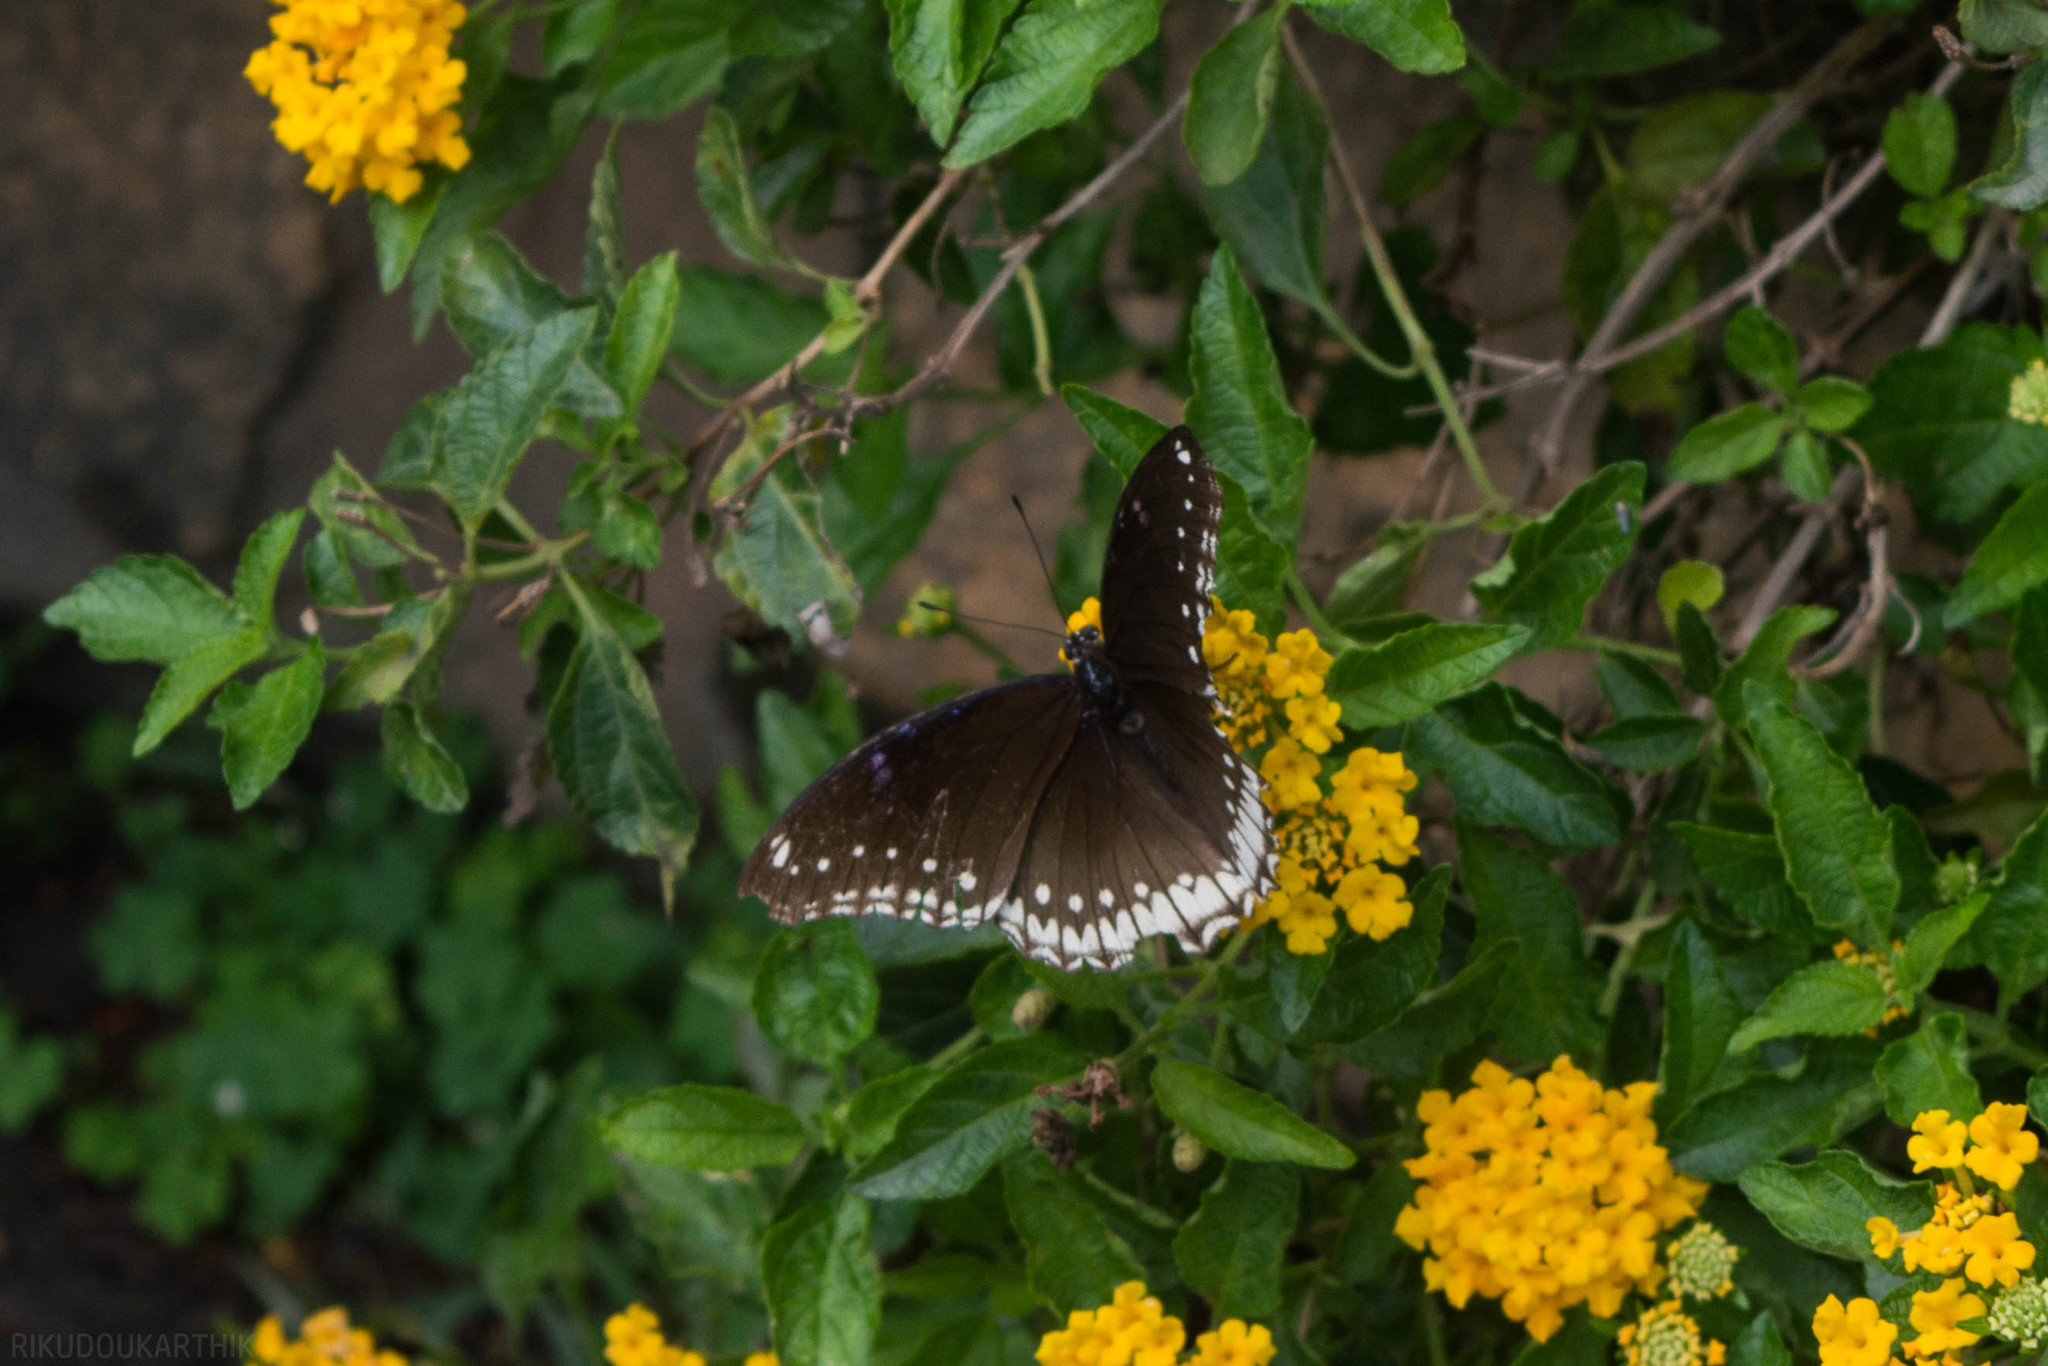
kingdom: Animalia
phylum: Arthropoda
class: Insecta
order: Lepidoptera
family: Nymphalidae
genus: Hypolimnas
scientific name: Hypolimnas bolina
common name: Great eggfly
